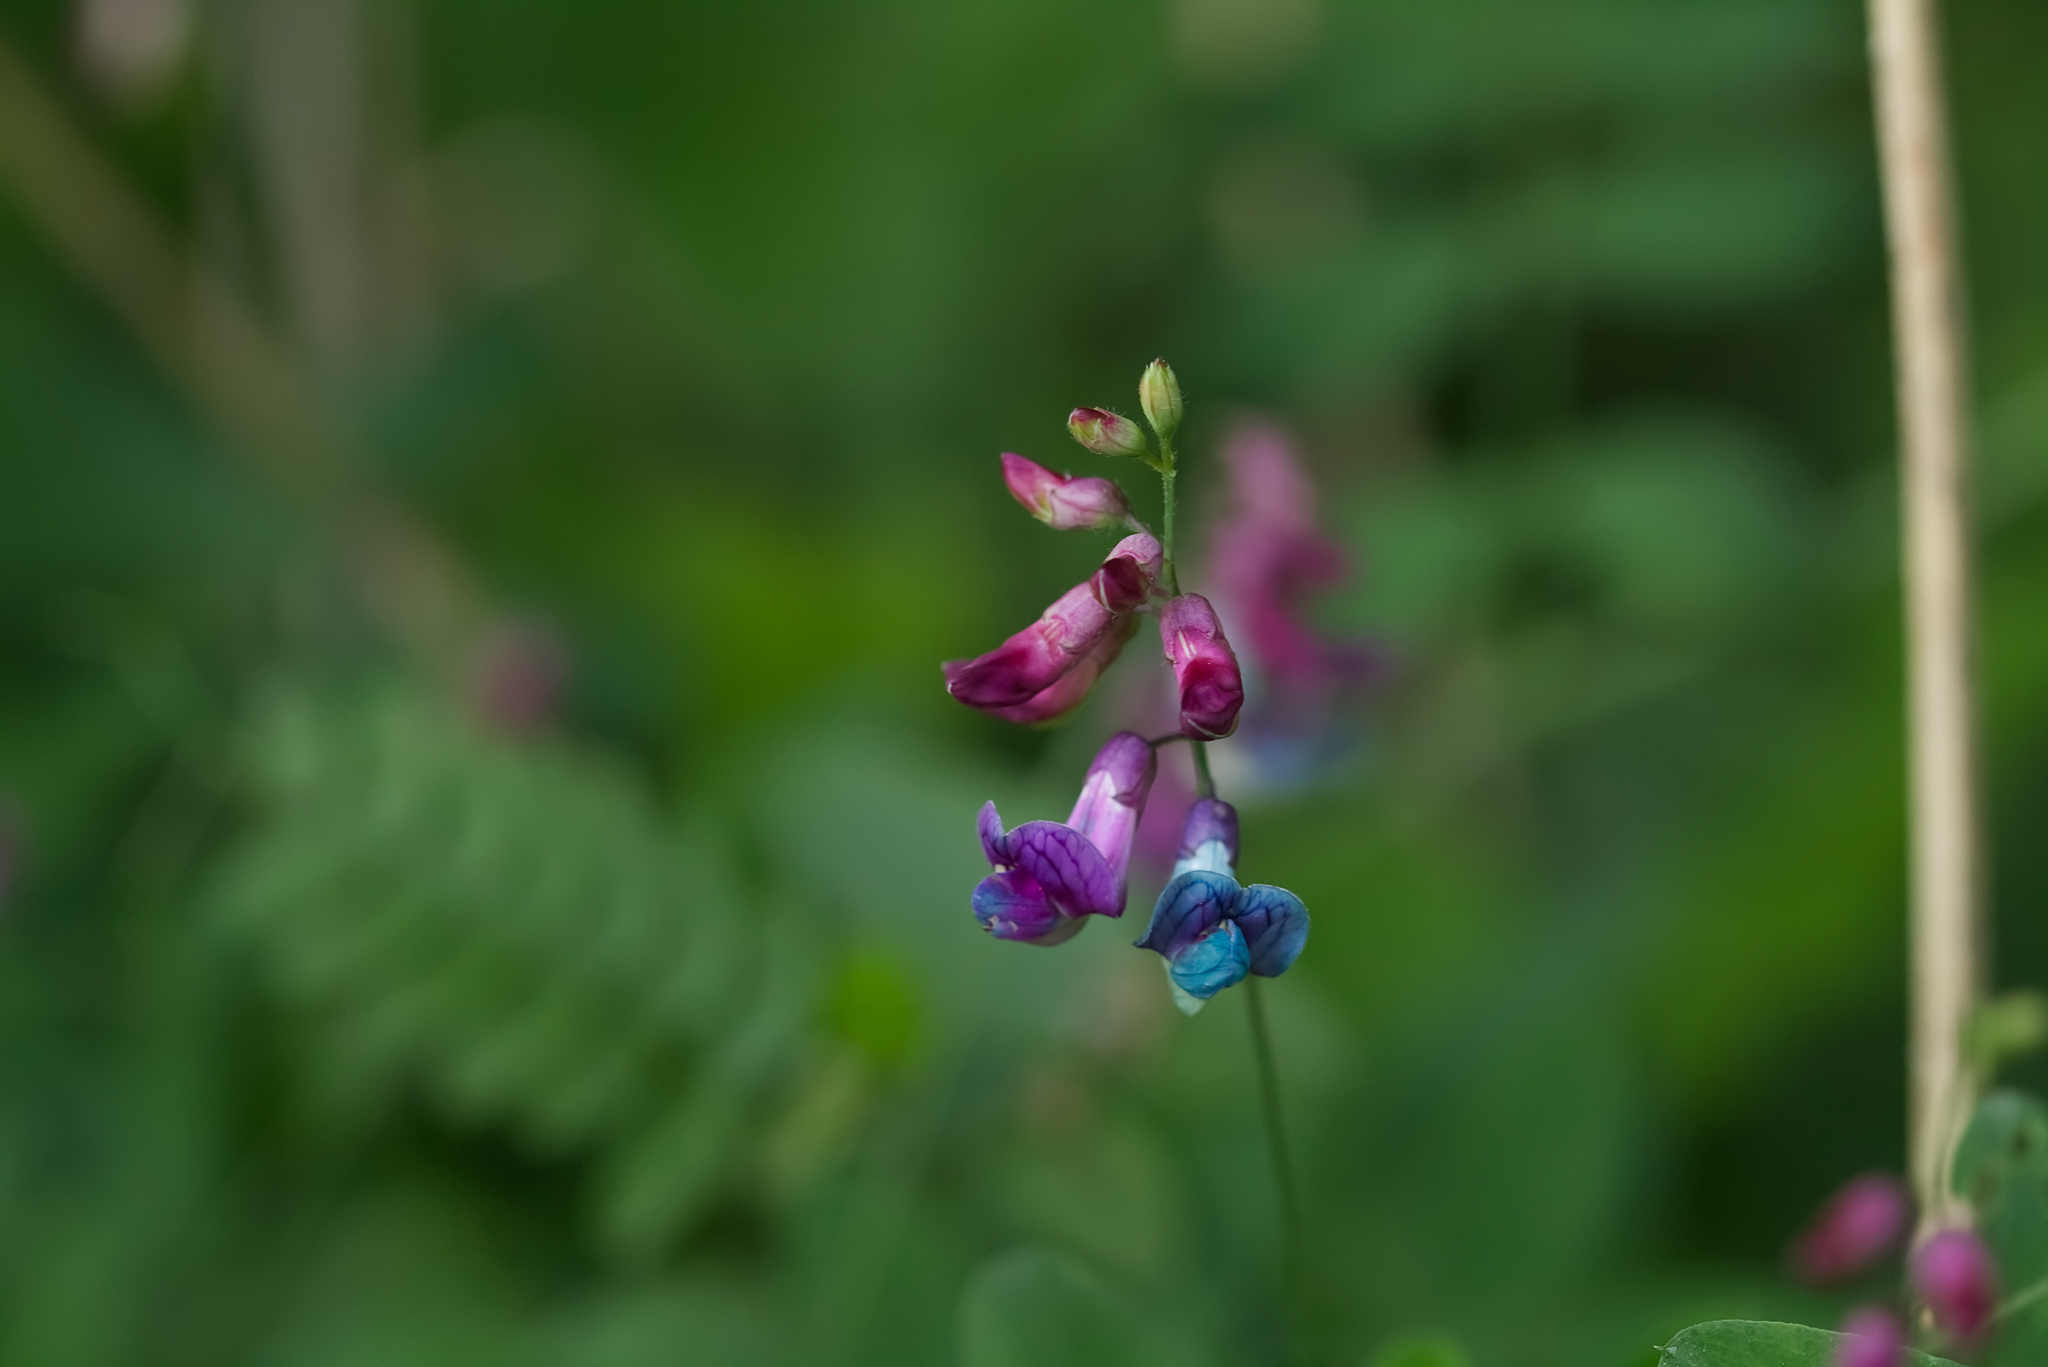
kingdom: Plantae
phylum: Tracheophyta
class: Magnoliopsida
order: Fabales
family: Fabaceae
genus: Lathyrus
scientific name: Lathyrus niger
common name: Black pea
